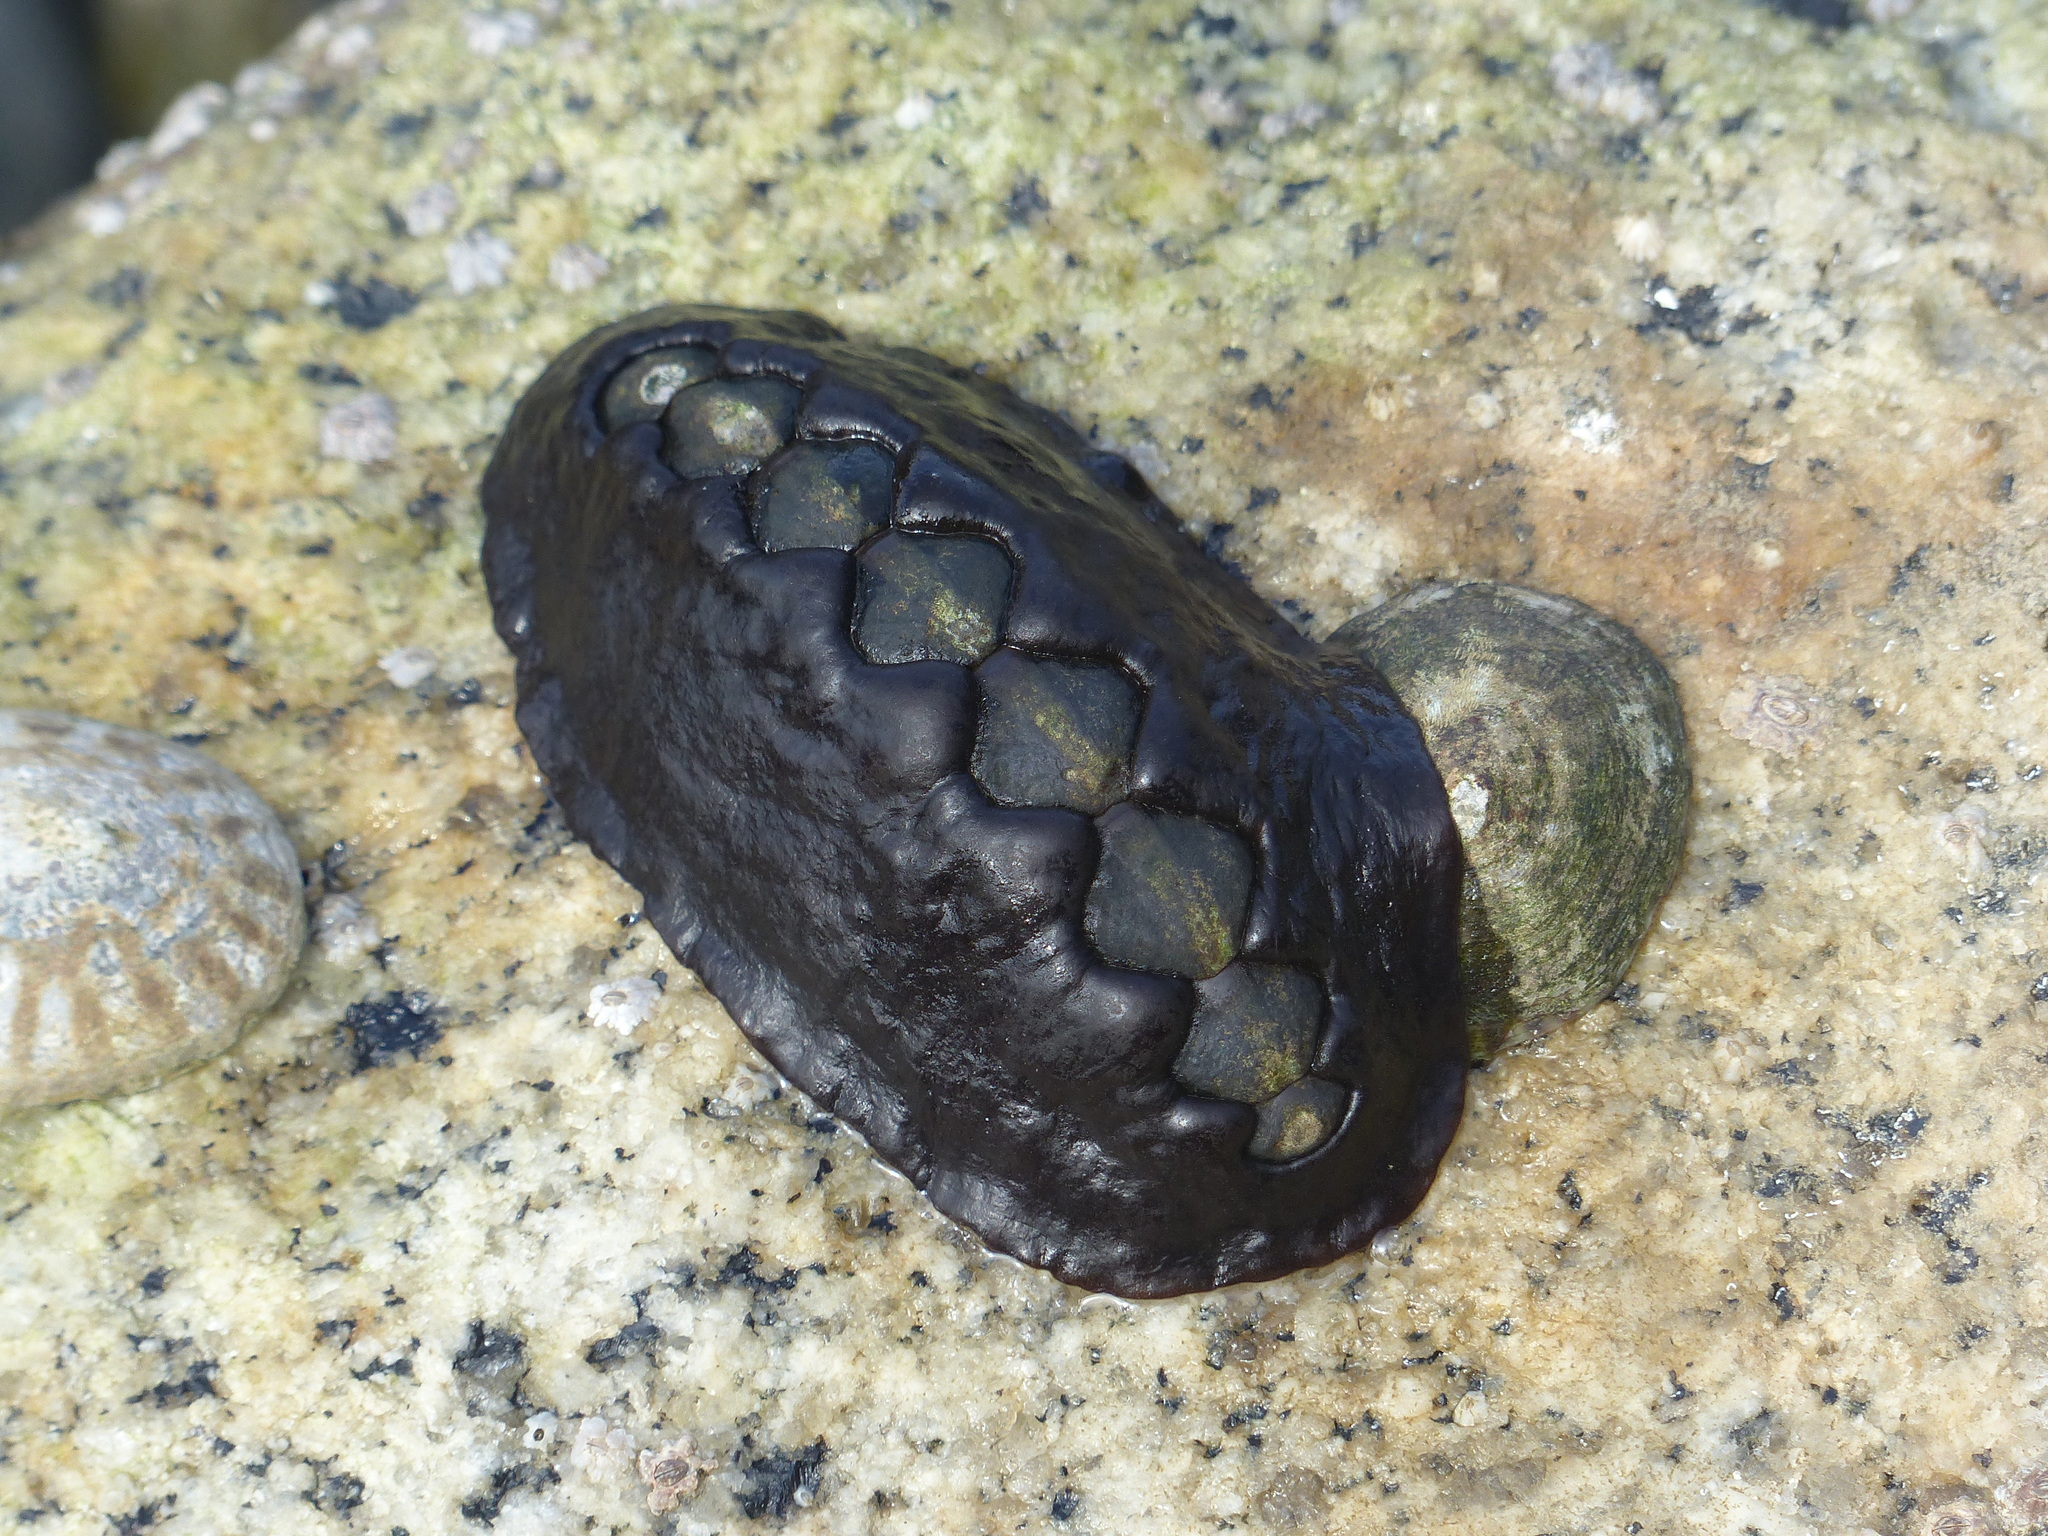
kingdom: Animalia
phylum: Mollusca
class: Polyplacophora
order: Chitonida
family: Mopaliidae
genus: Katharina
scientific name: Katharina tunicata
